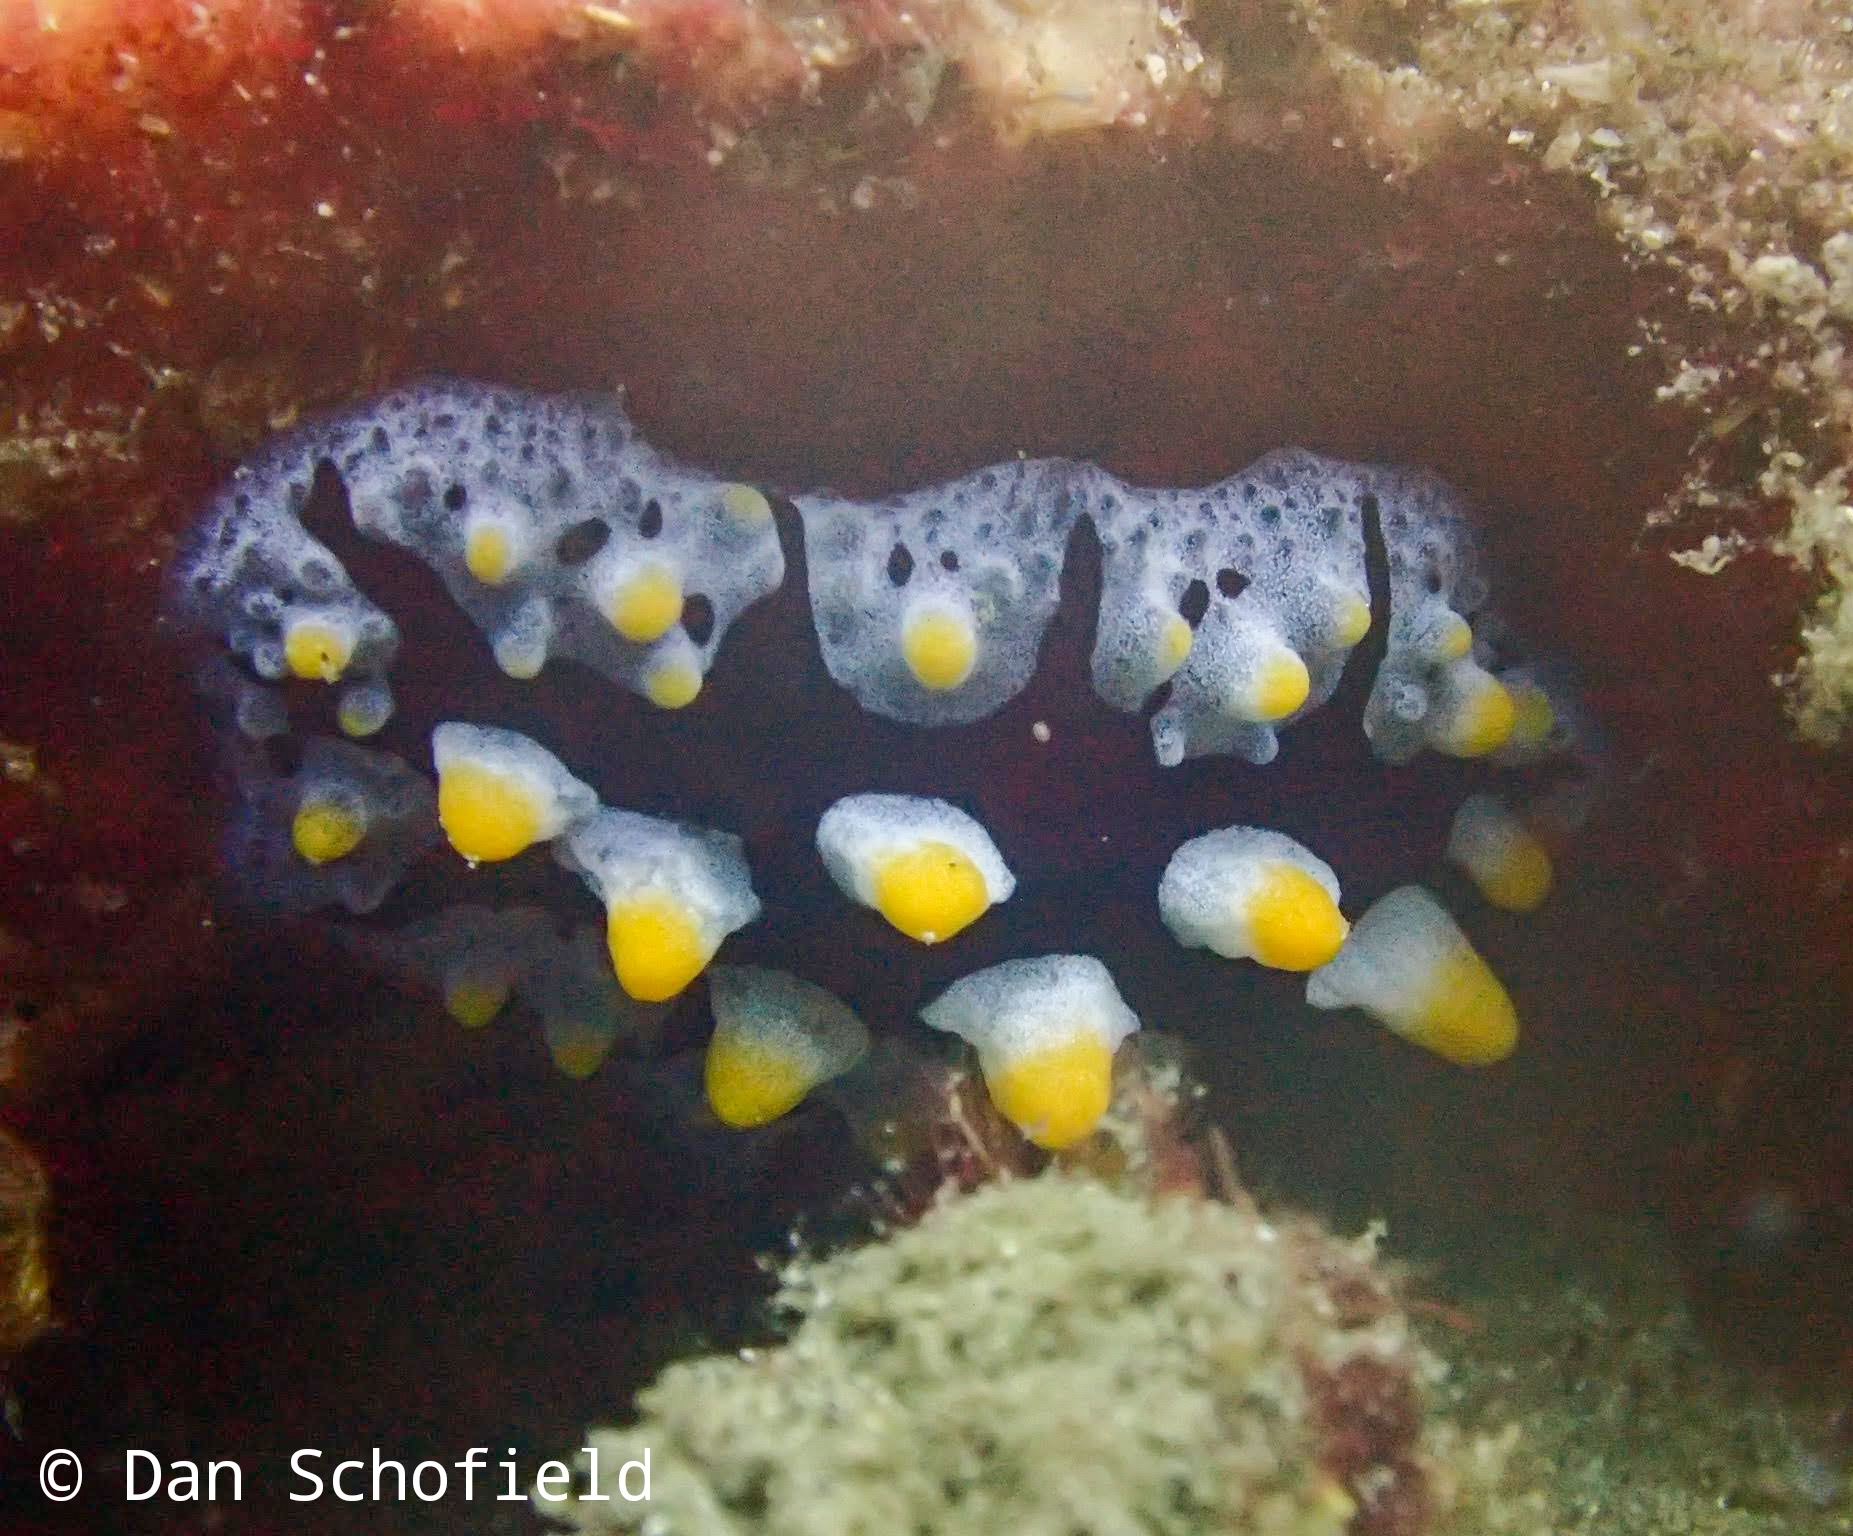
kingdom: Animalia
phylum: Mollusca
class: Gastropoda
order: Nudibranchia
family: Phyllidiidae
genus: Phyllidia
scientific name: Phyllidia picta
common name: Black-rayed phyllidia
